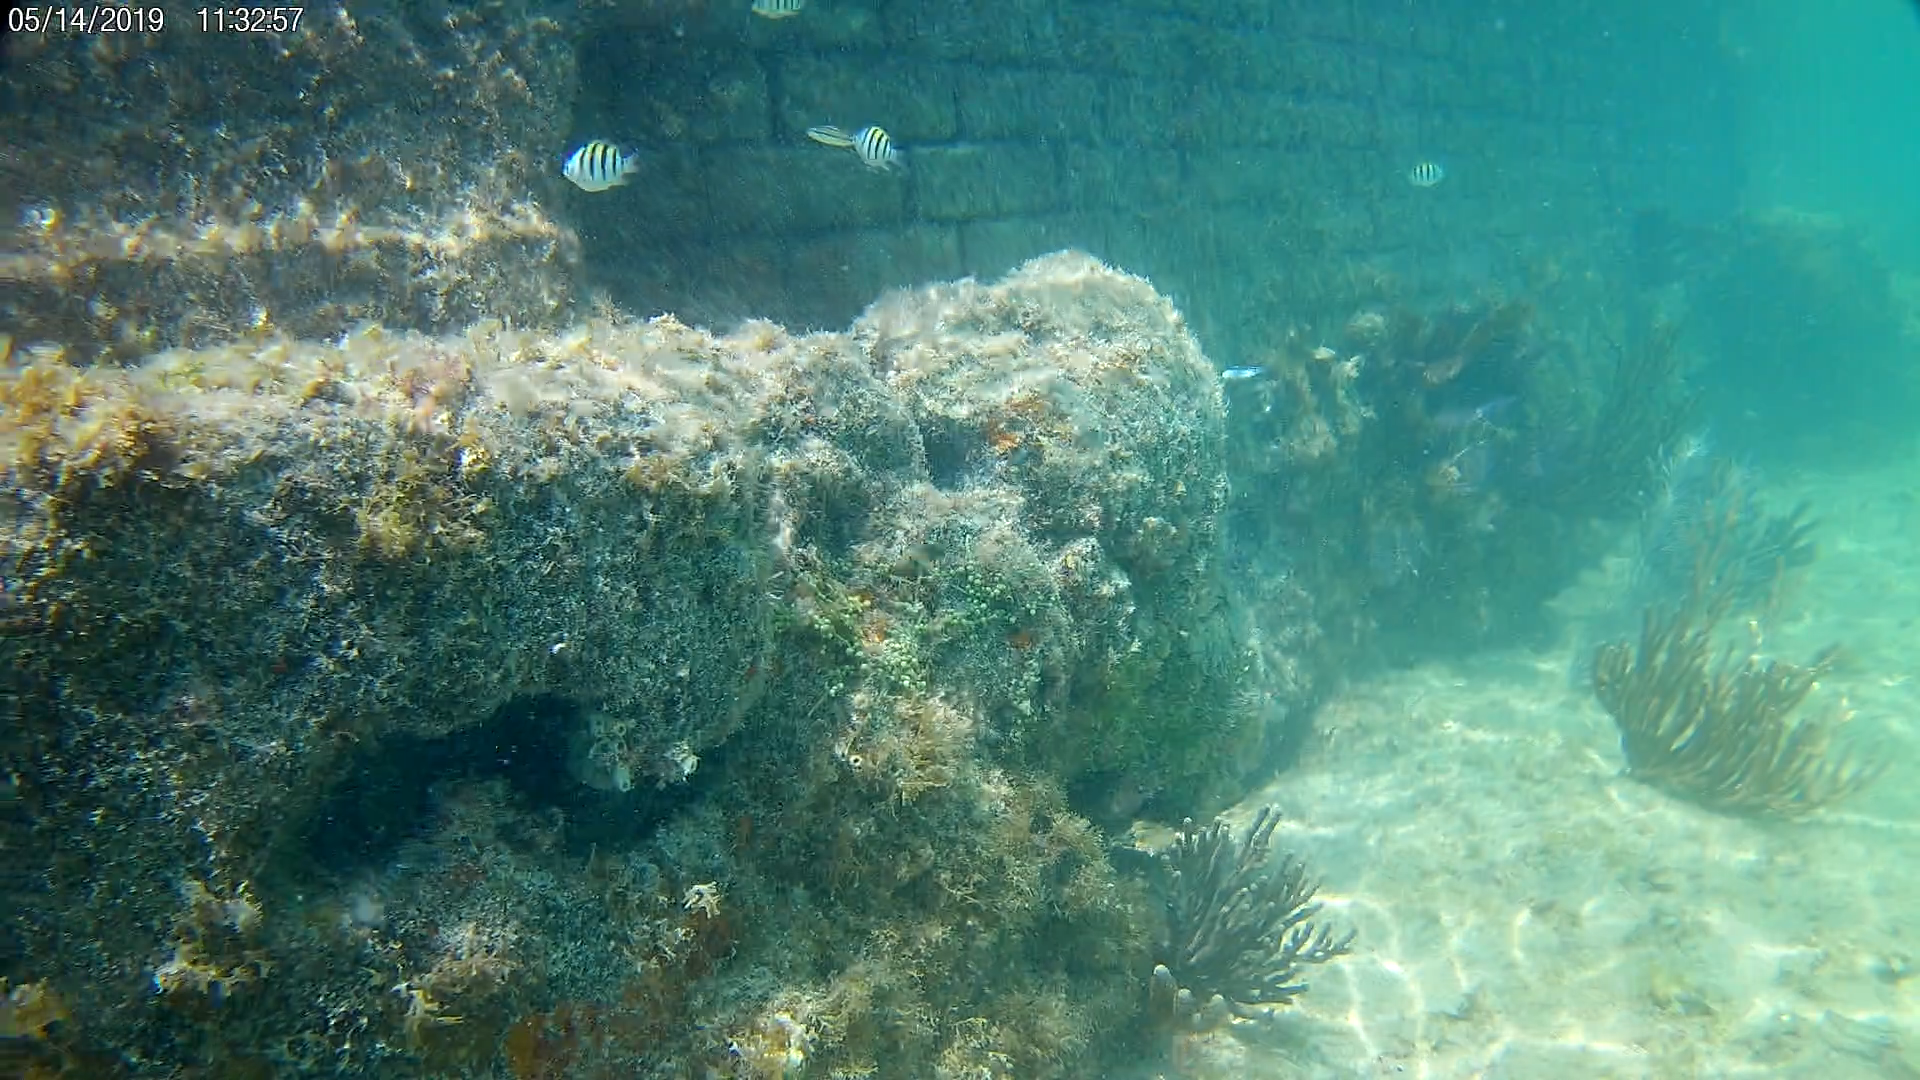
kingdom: Animalia
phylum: Chordata
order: Perciformes
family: Pomacentridae
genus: Abudefduf
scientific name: Abudefduf saxatilis
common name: Sergeant major
